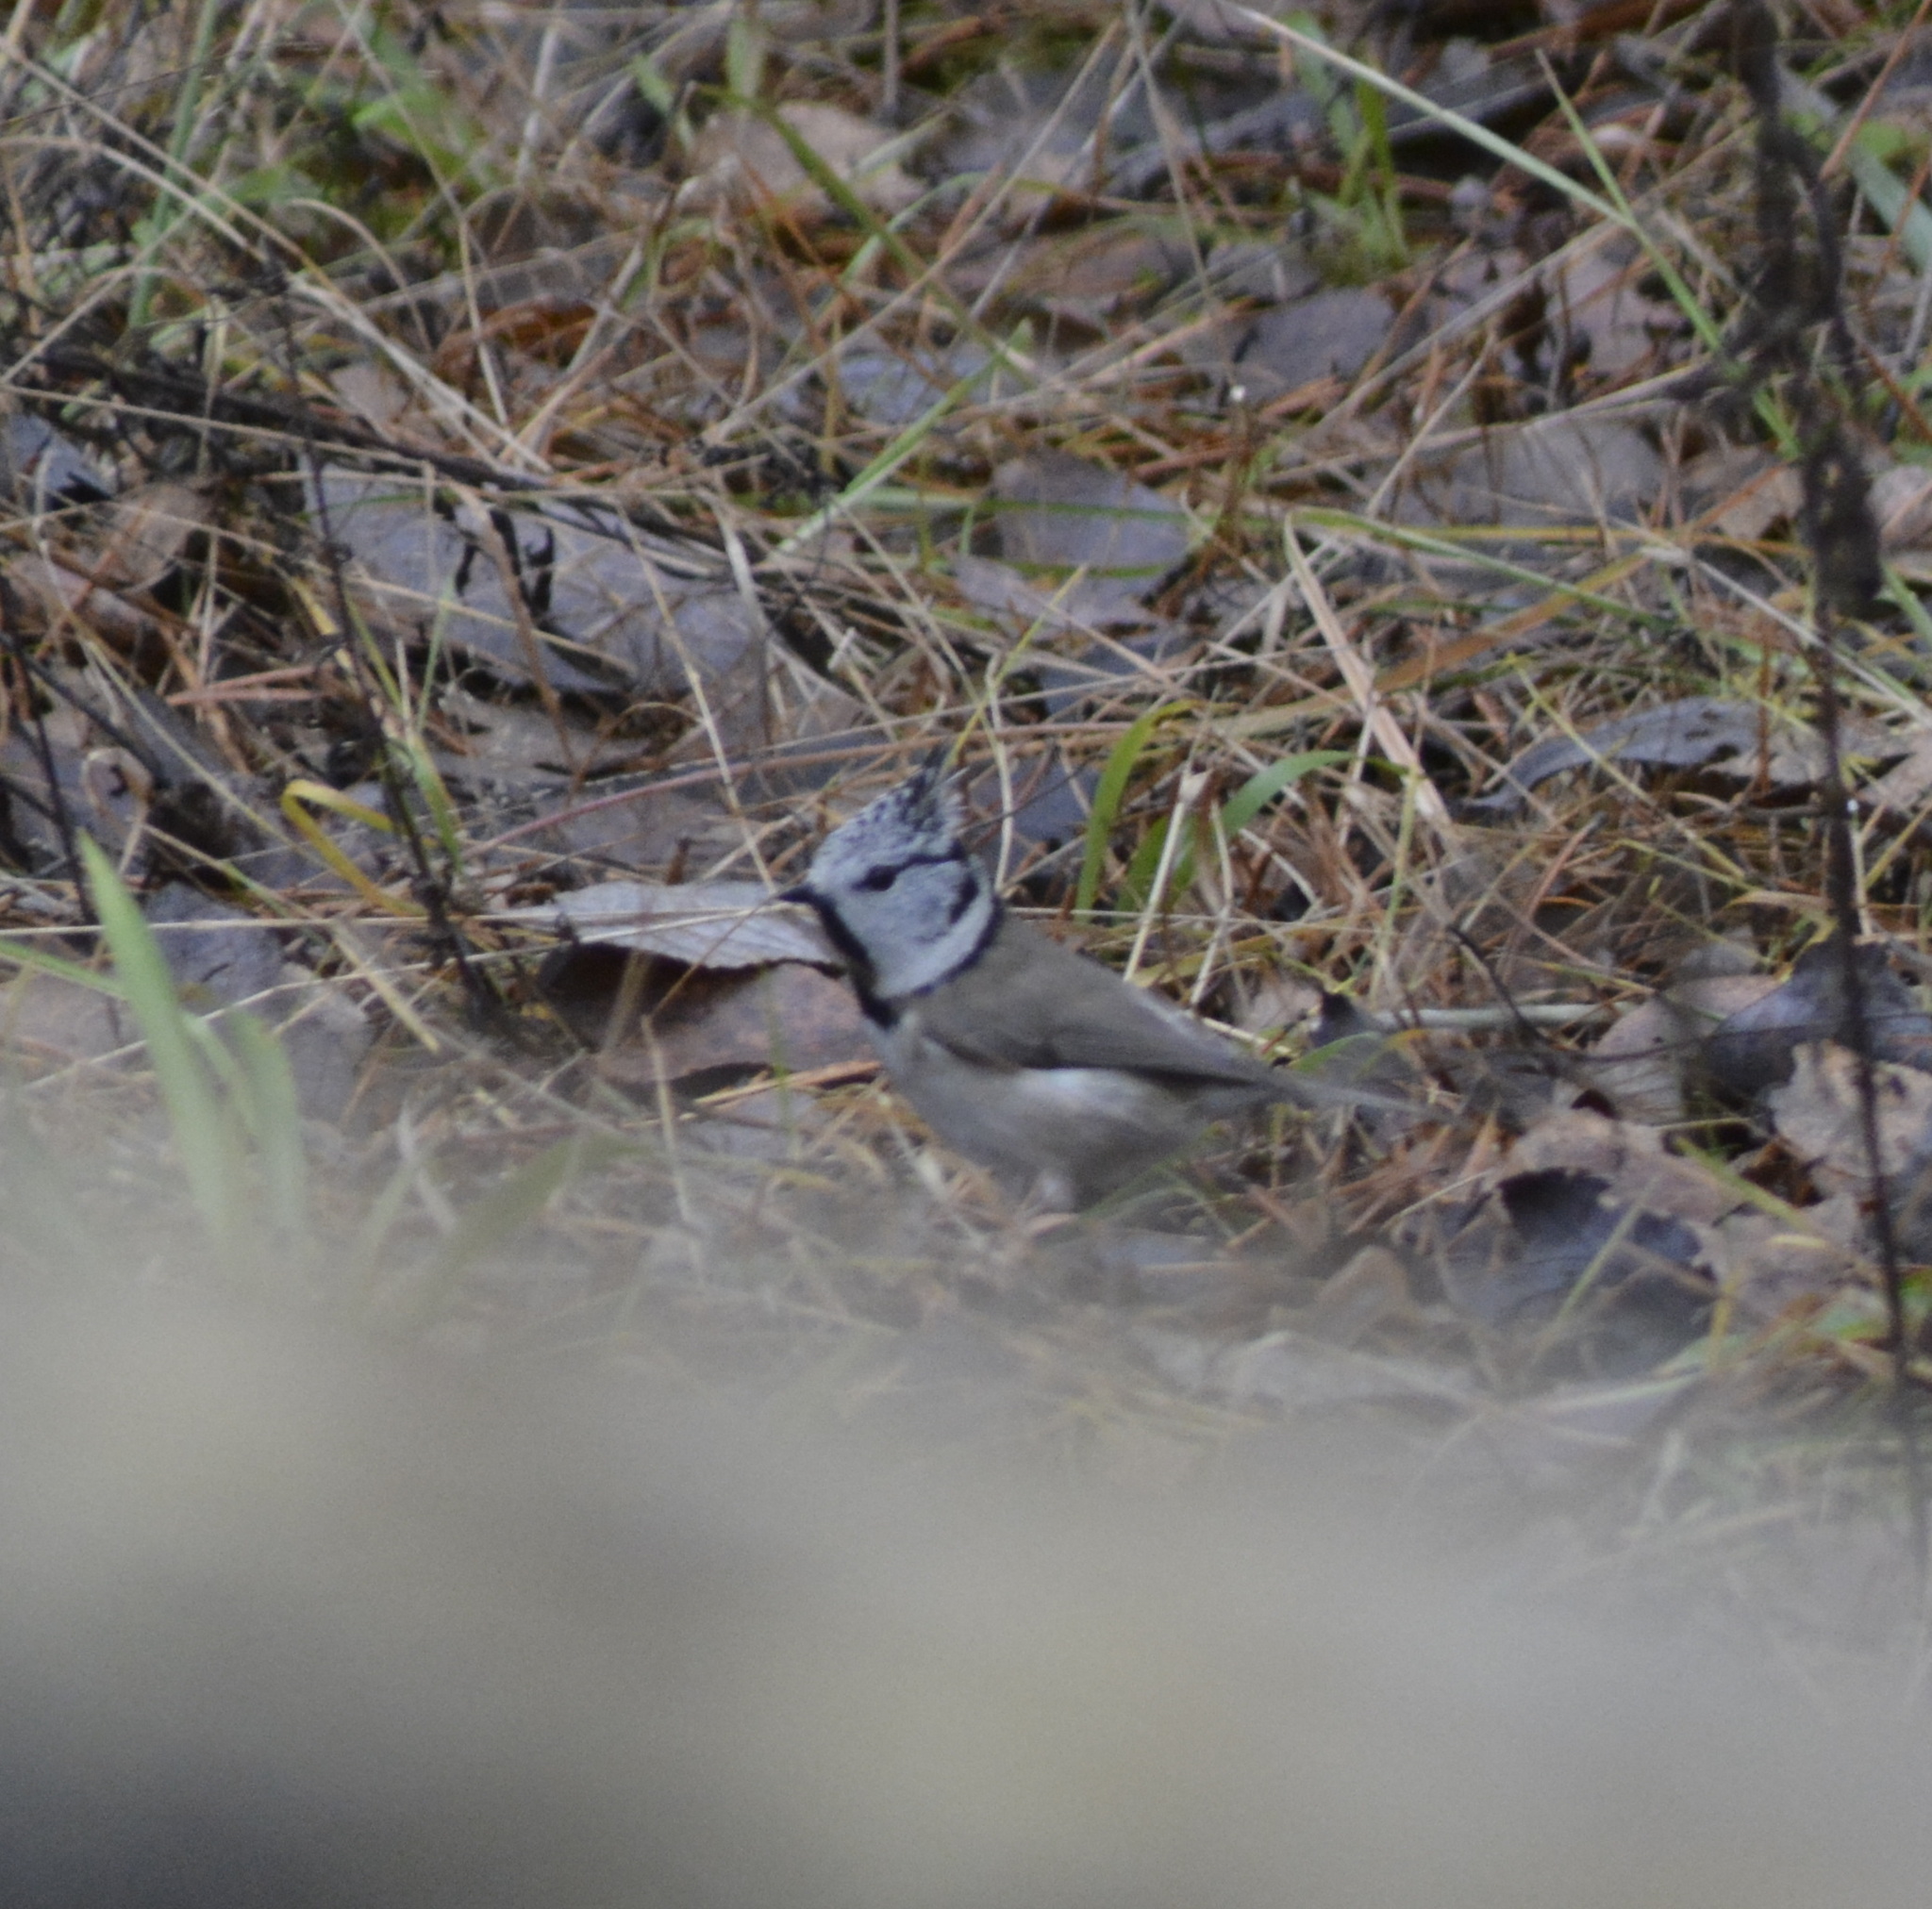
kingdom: Animalia
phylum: Chordata
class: Aves
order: Passeriformes
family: Paridae
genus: Lophophanes
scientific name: Lophophanes cristatus
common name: European crested tit
